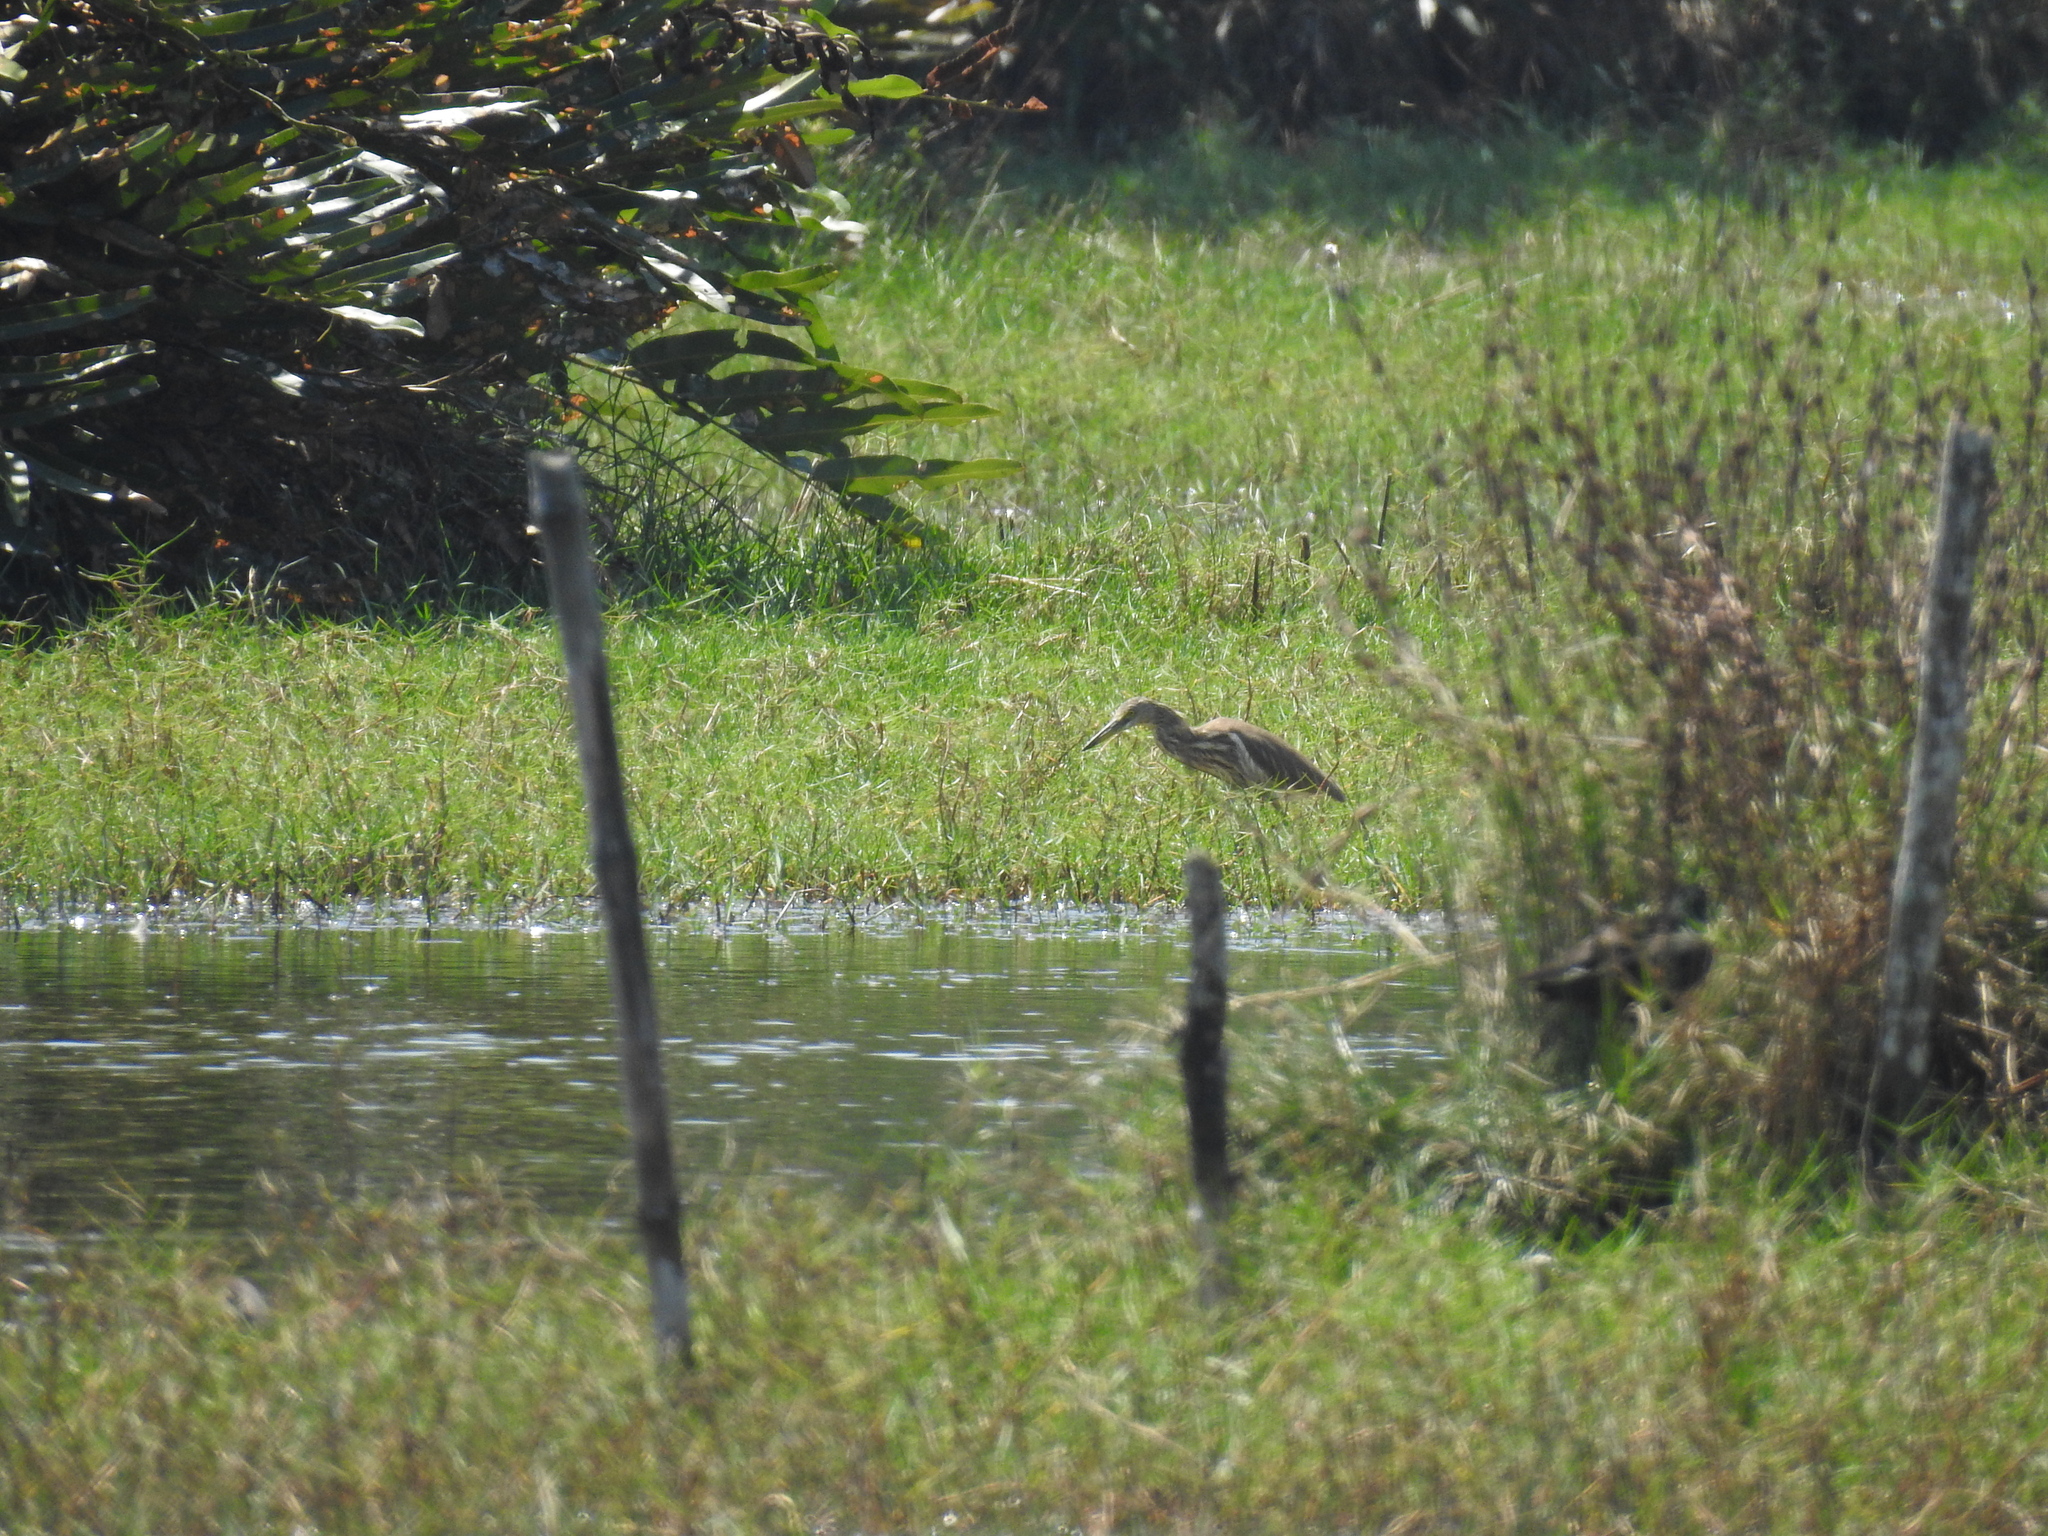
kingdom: Animalia
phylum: Chordata
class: Aves
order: Pelecaniformes
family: Ardeidae
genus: Ardeola
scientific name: Ardeola grayii
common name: Indian pond heron
